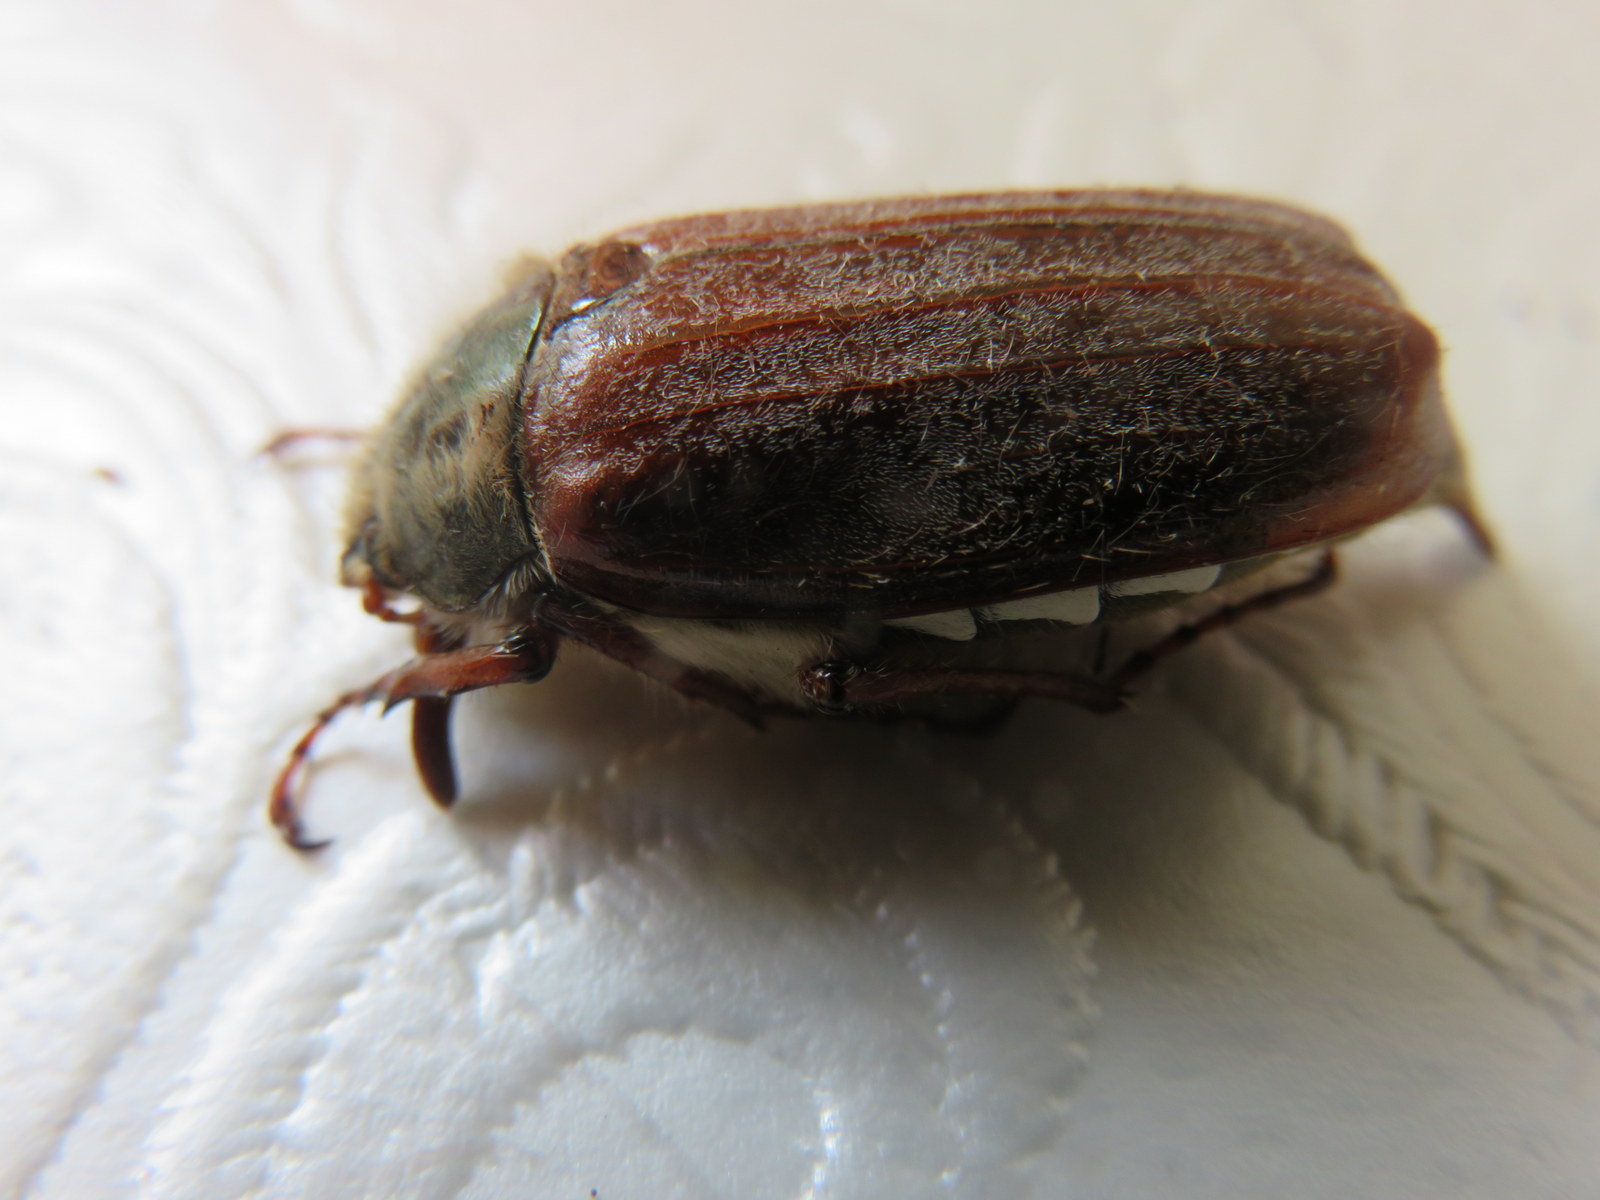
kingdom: Animalia
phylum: Arthropoda
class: Insecta
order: Coleoptera
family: Scarabaeidae
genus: Melolontha
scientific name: Melolontha melolontha
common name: Cockchafer maybeetle
